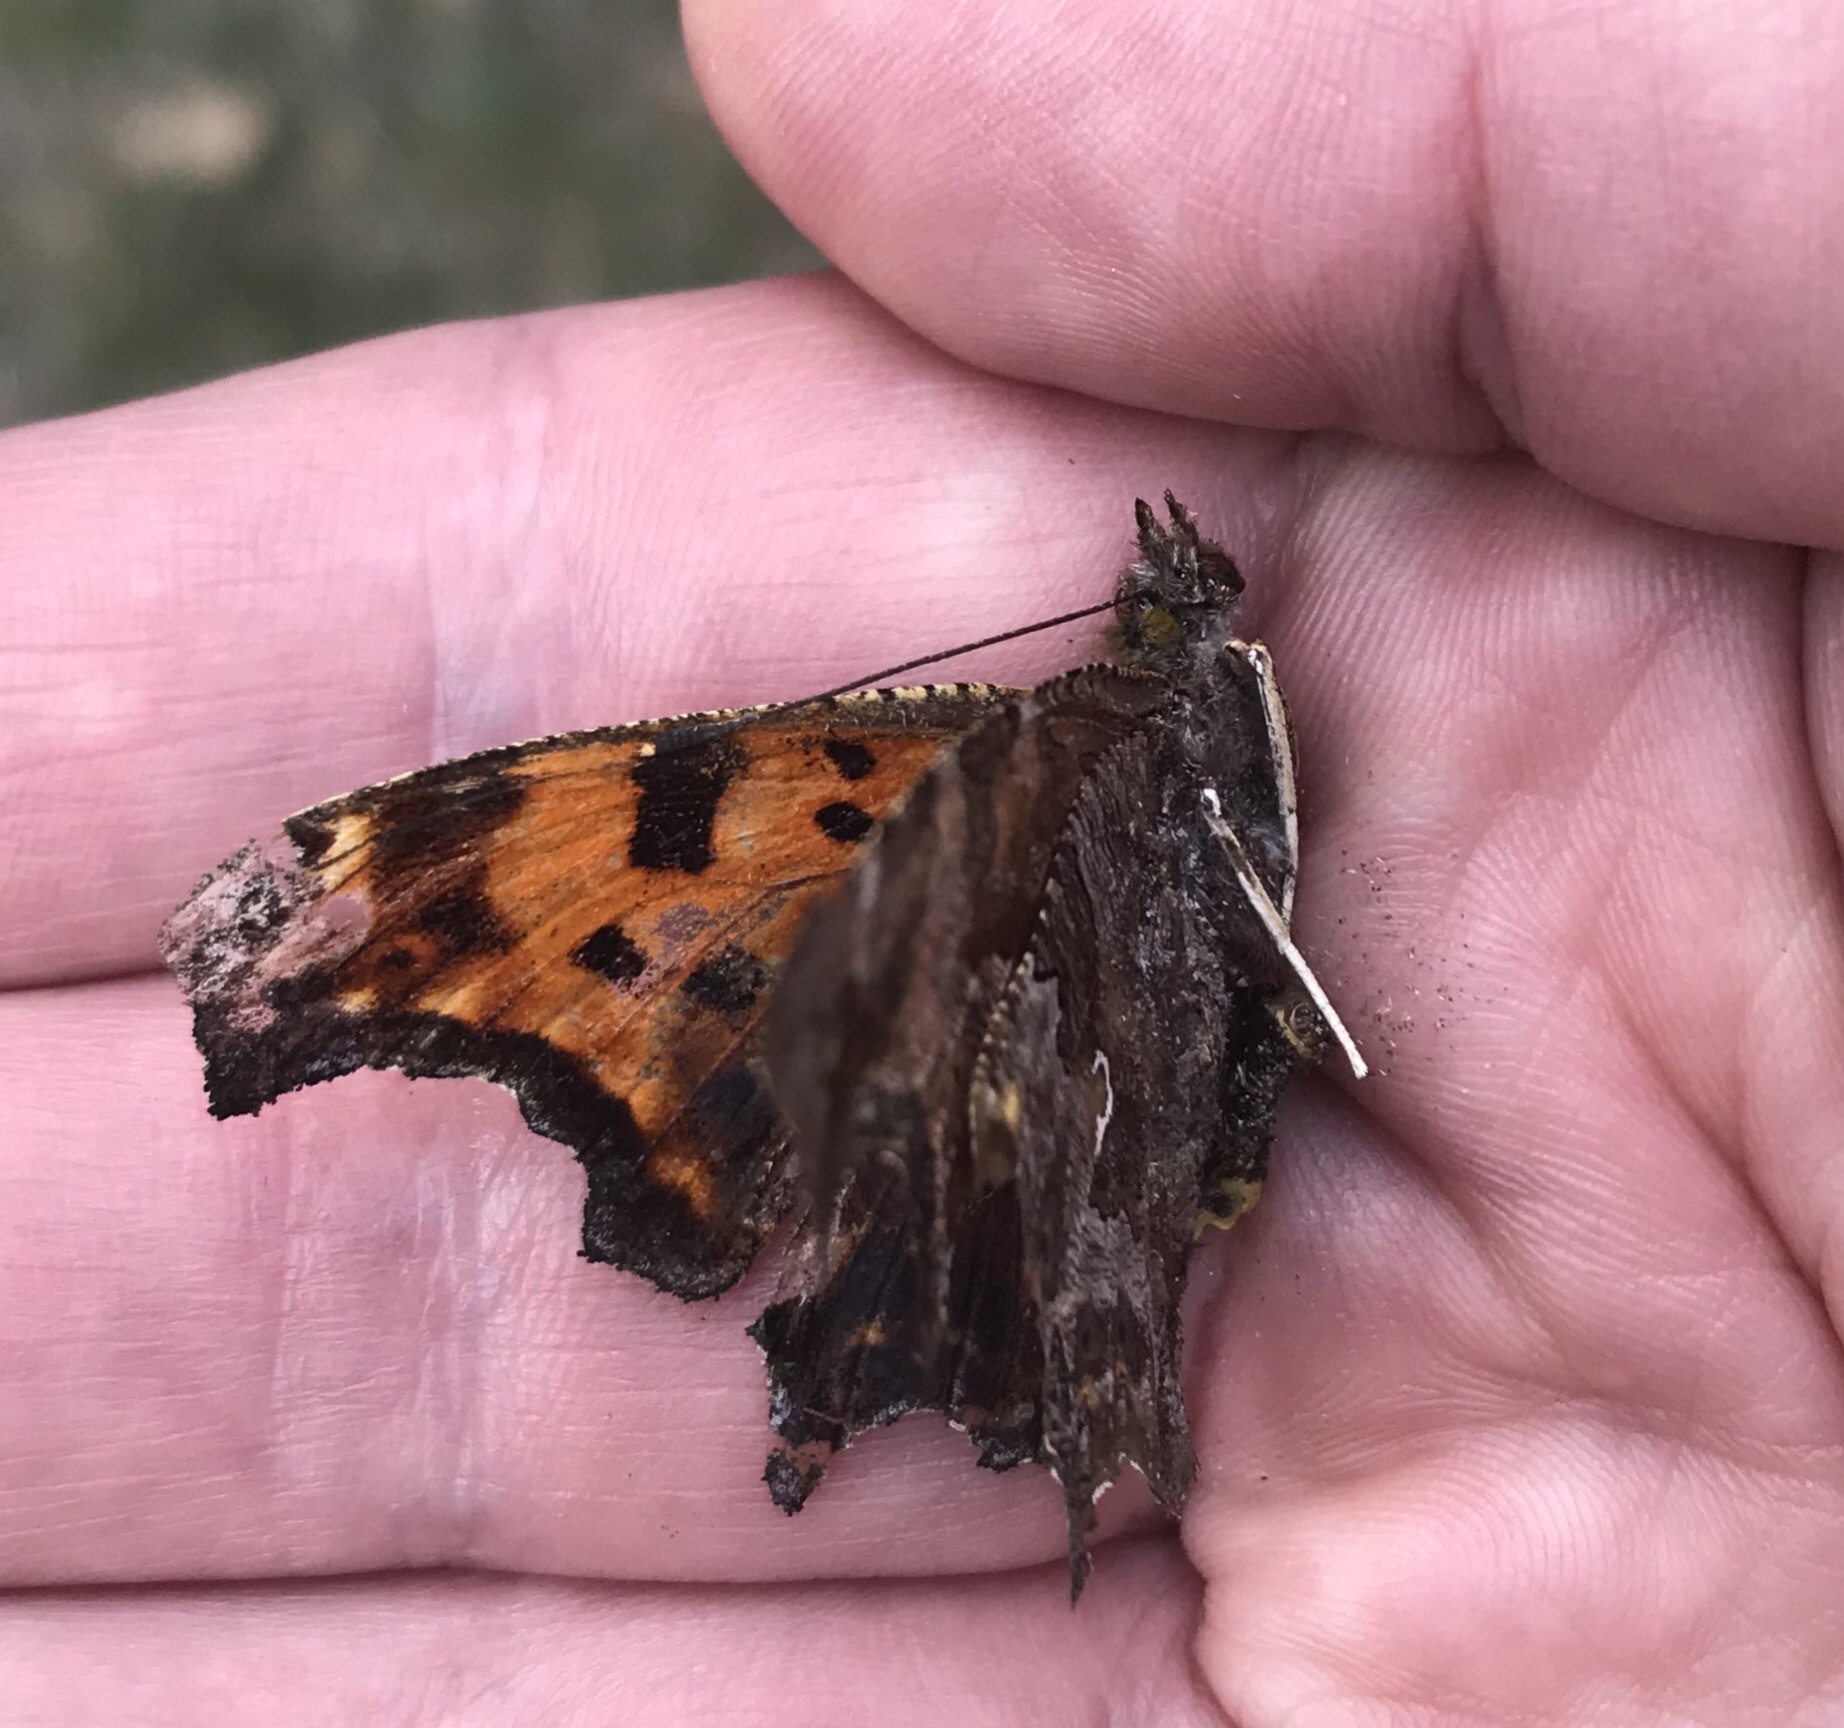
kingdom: Animalia
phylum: Arthropoda
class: Insecta
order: Lepidoptera
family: Nymphalidae
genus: Polygonia
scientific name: Polygonia comma
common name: Eastern comma
